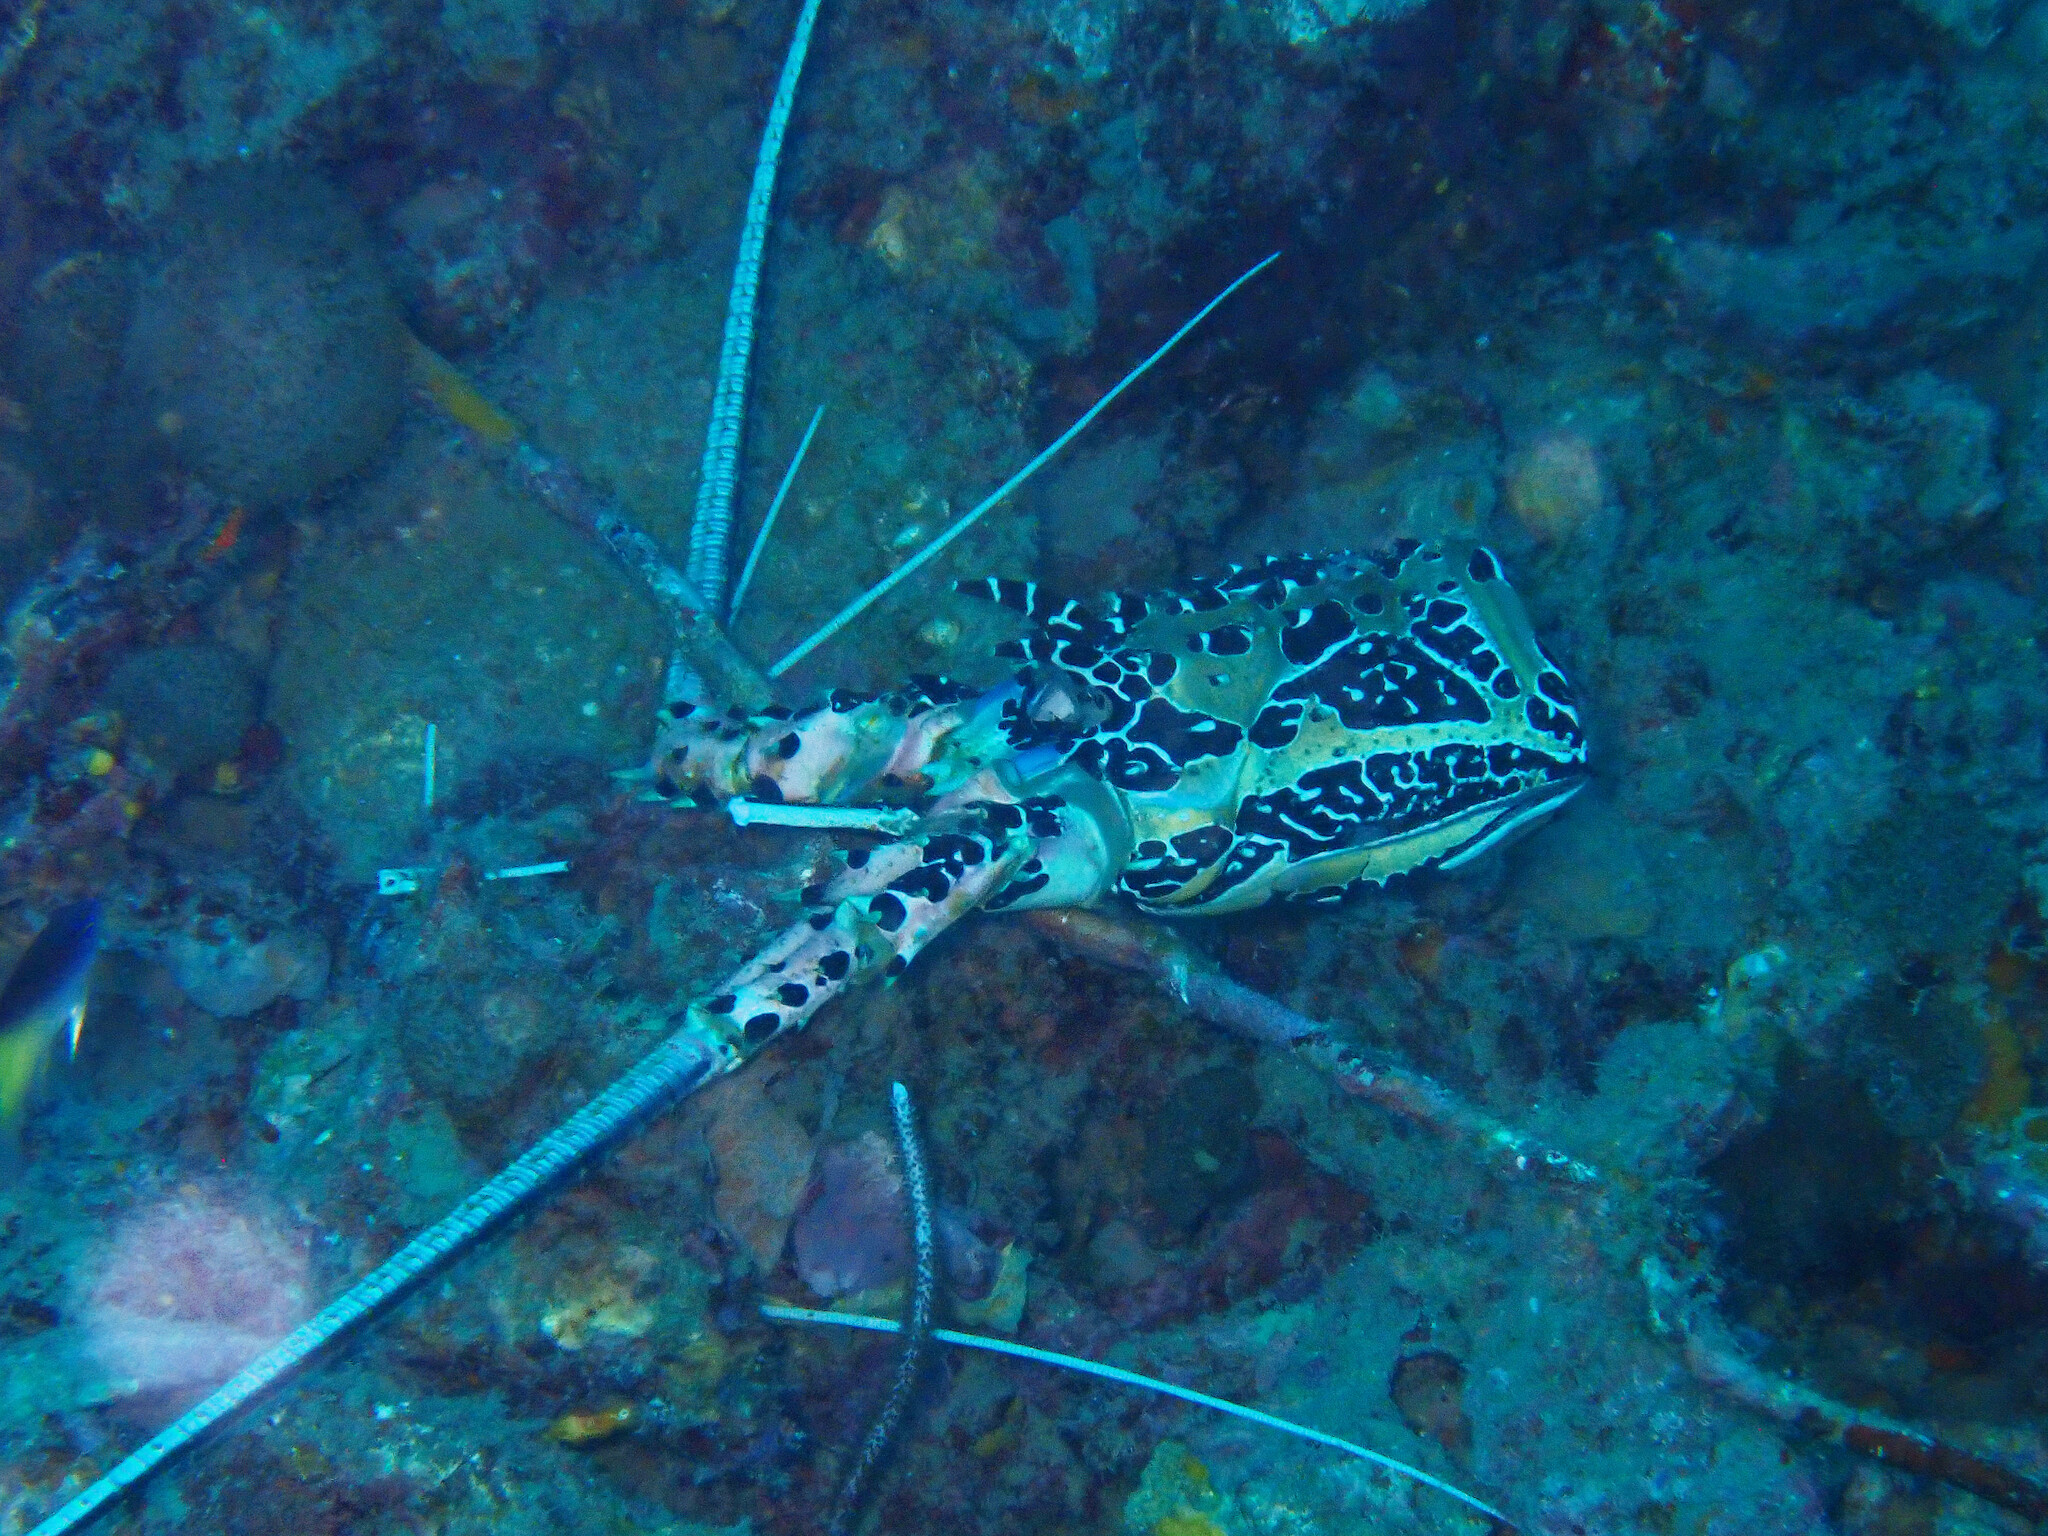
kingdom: Animalia
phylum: Arthropoda
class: Malacostraca
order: Decapoda
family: Palinuridae
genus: Panulirus
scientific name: Panulirus versicolor
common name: Painted spiny lobster
